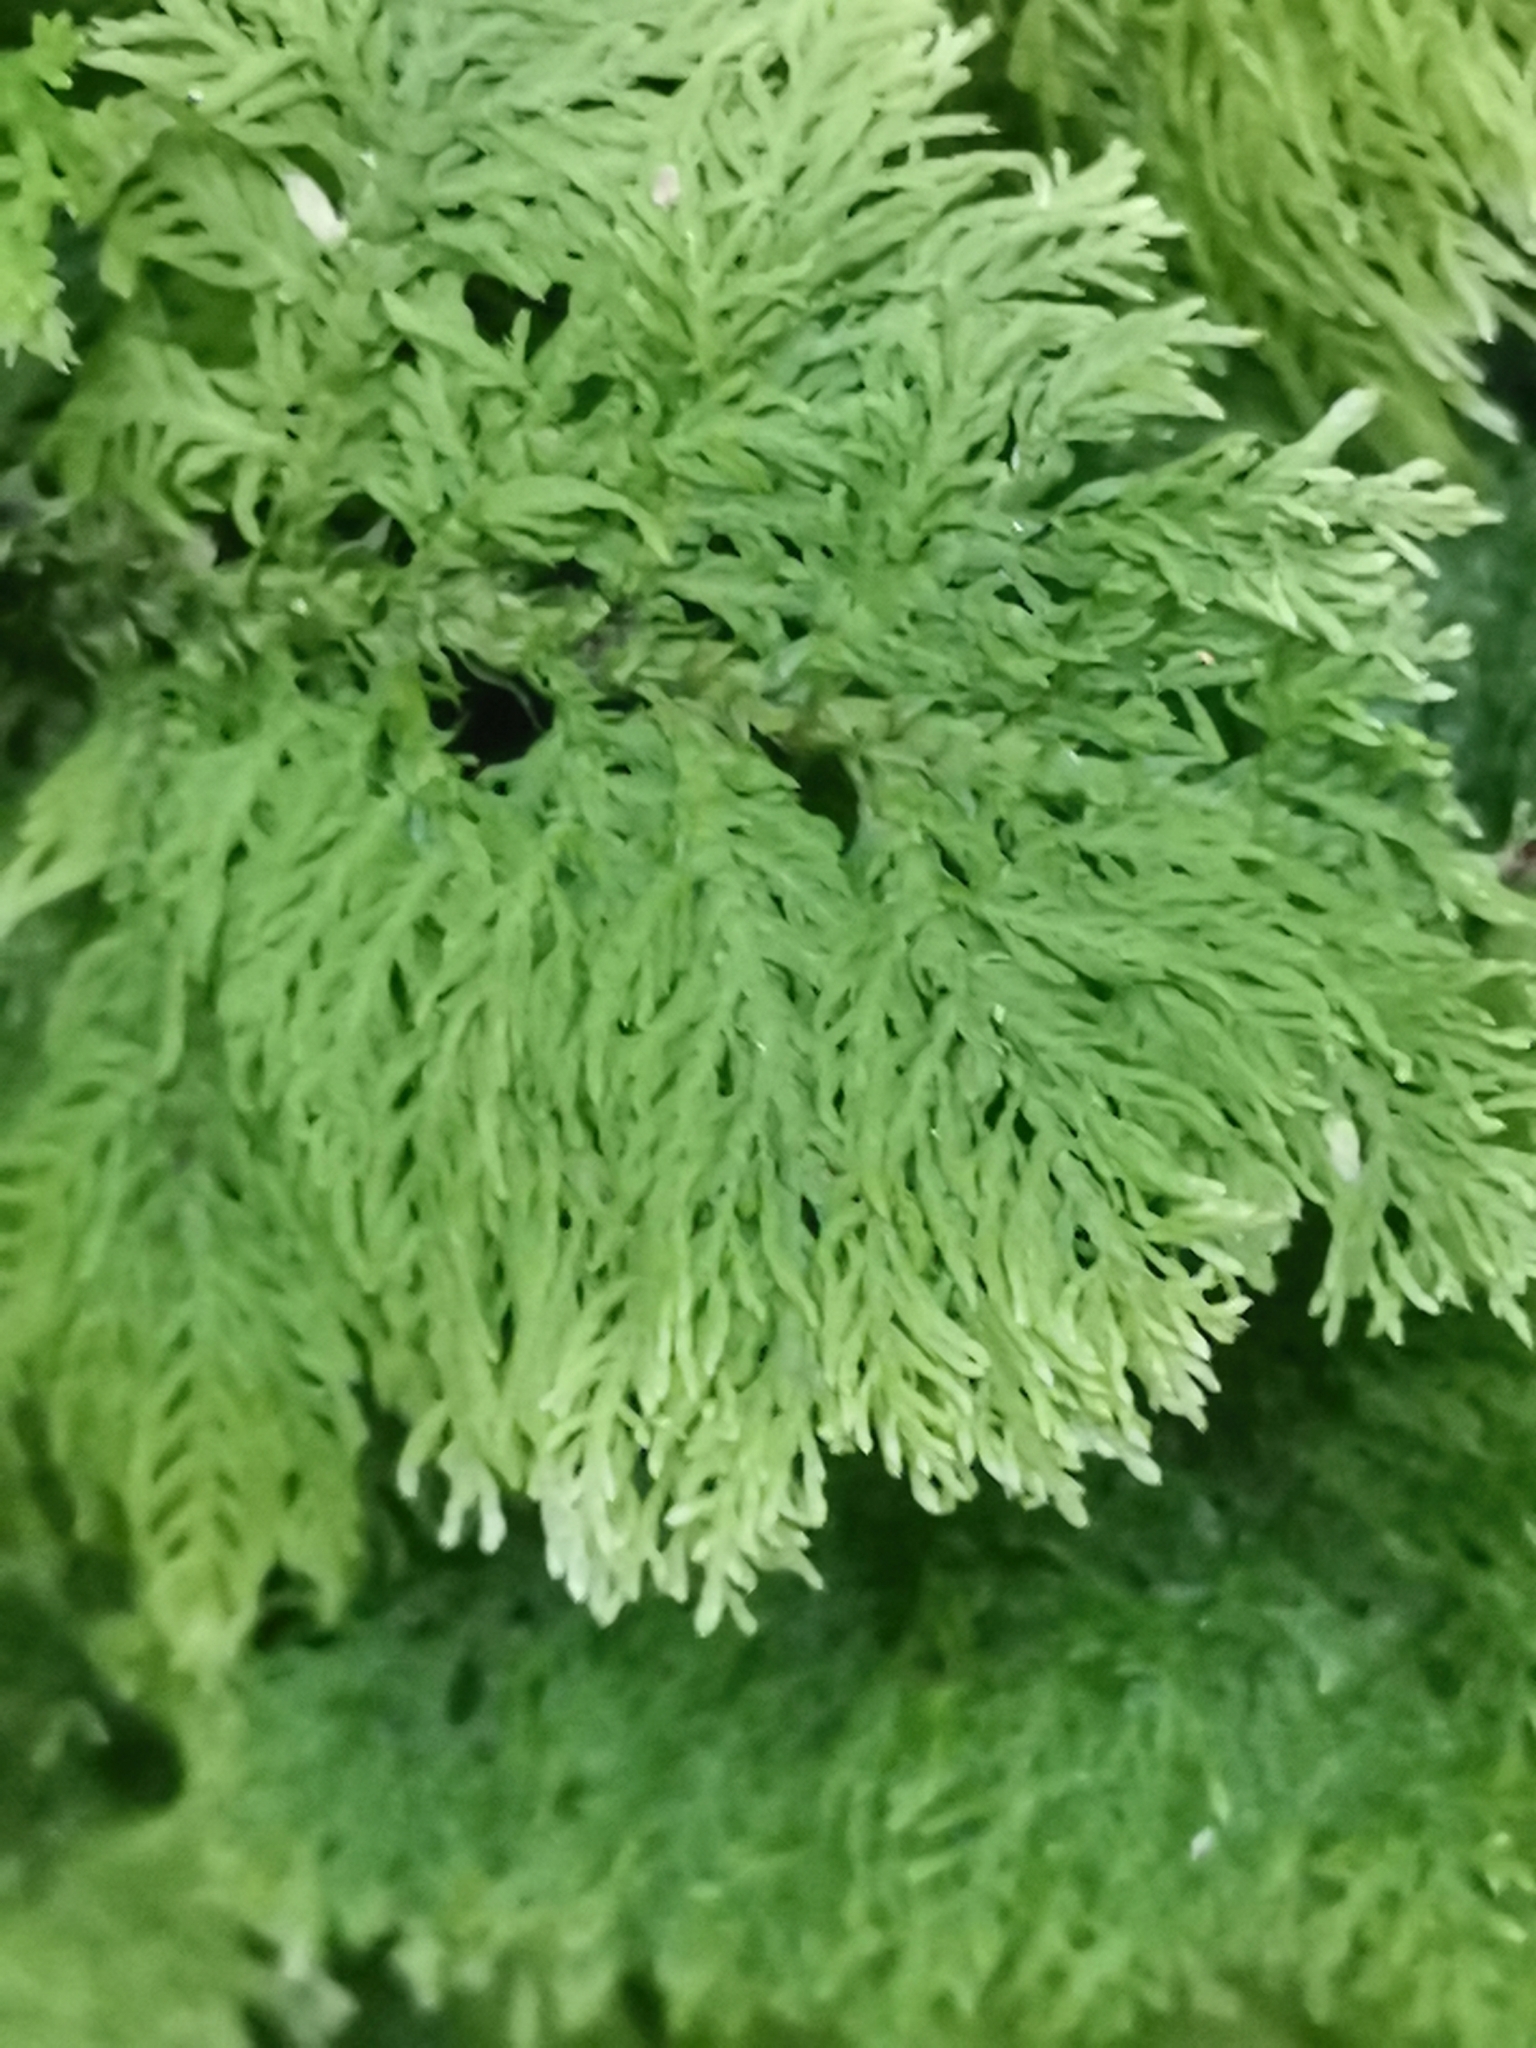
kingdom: Plantae
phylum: Bryophyta
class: Bryopsida
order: Hypnales
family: Thuidiaceae
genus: Thuidium
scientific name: Thuidium tamariscinum
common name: Common tamarisk-moss
